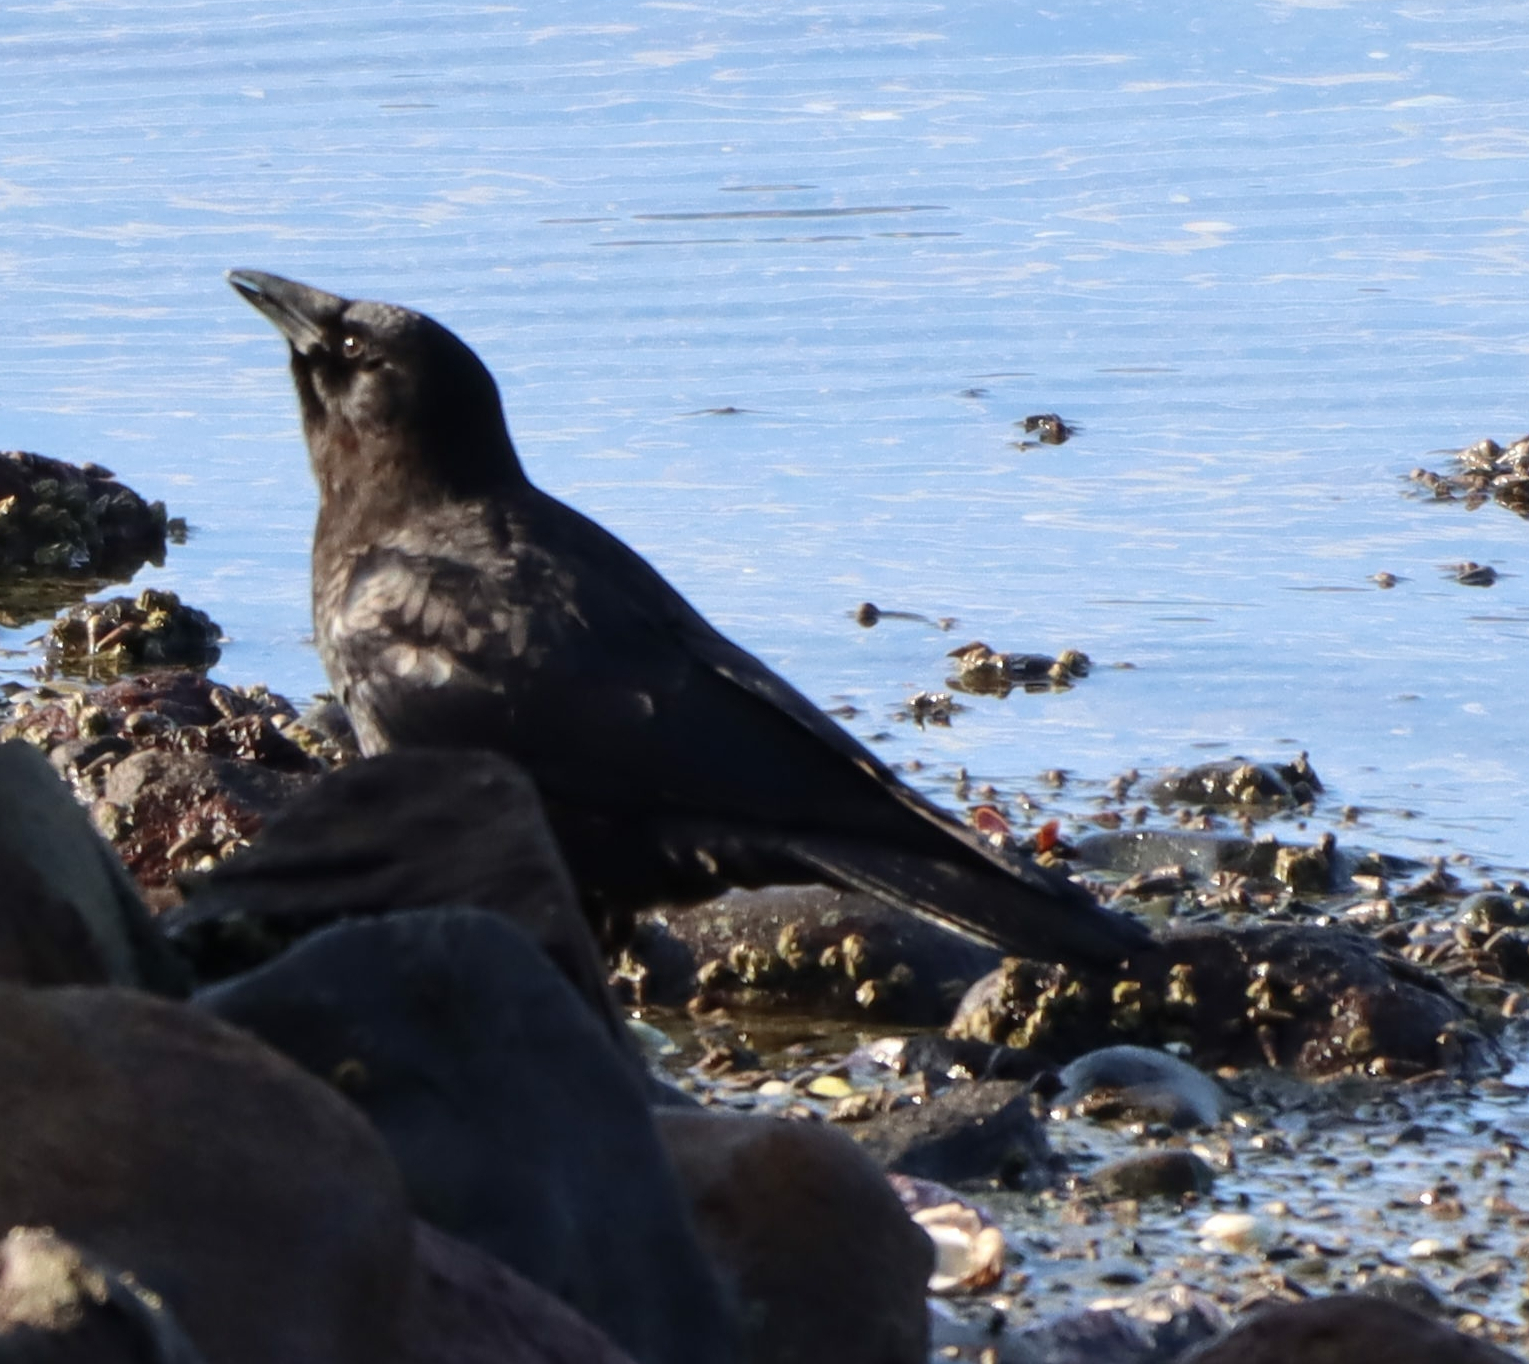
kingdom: Animalia
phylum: Chordata
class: Aves
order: Passeriformes
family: Corvidae
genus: Corvus
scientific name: Corvus brachyrhynchos
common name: American crow
